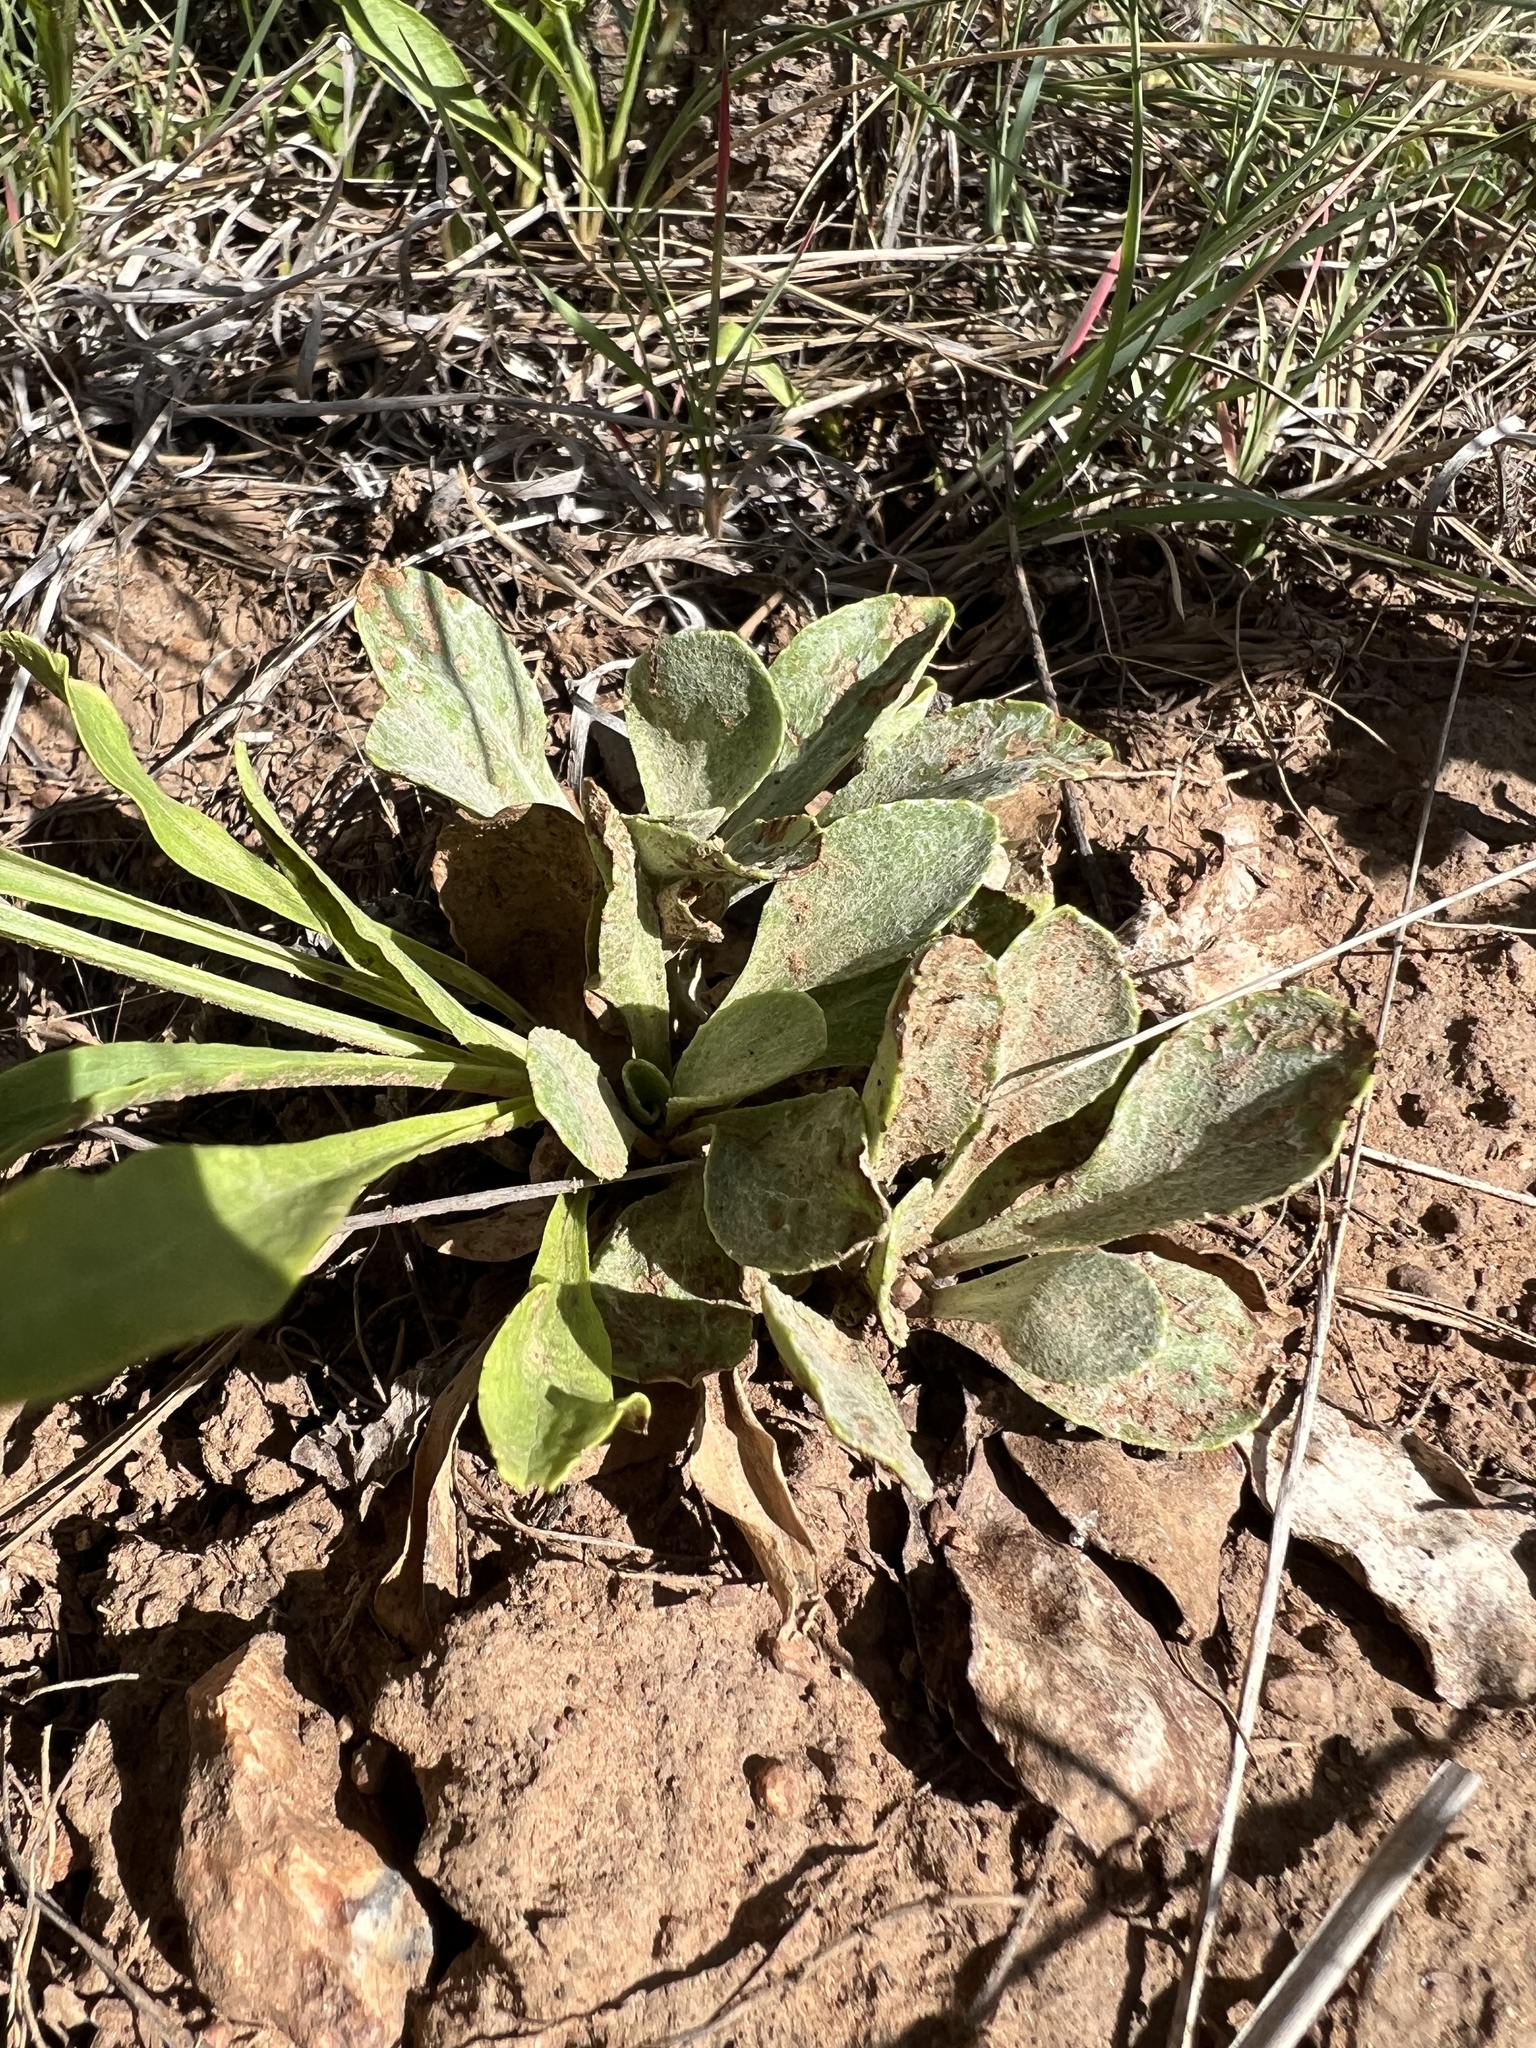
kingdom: Plantae
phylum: Tracheophyta
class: Magnoliopsida
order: Asterales
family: Asteraceae
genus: Packera
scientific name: Packera actinella
